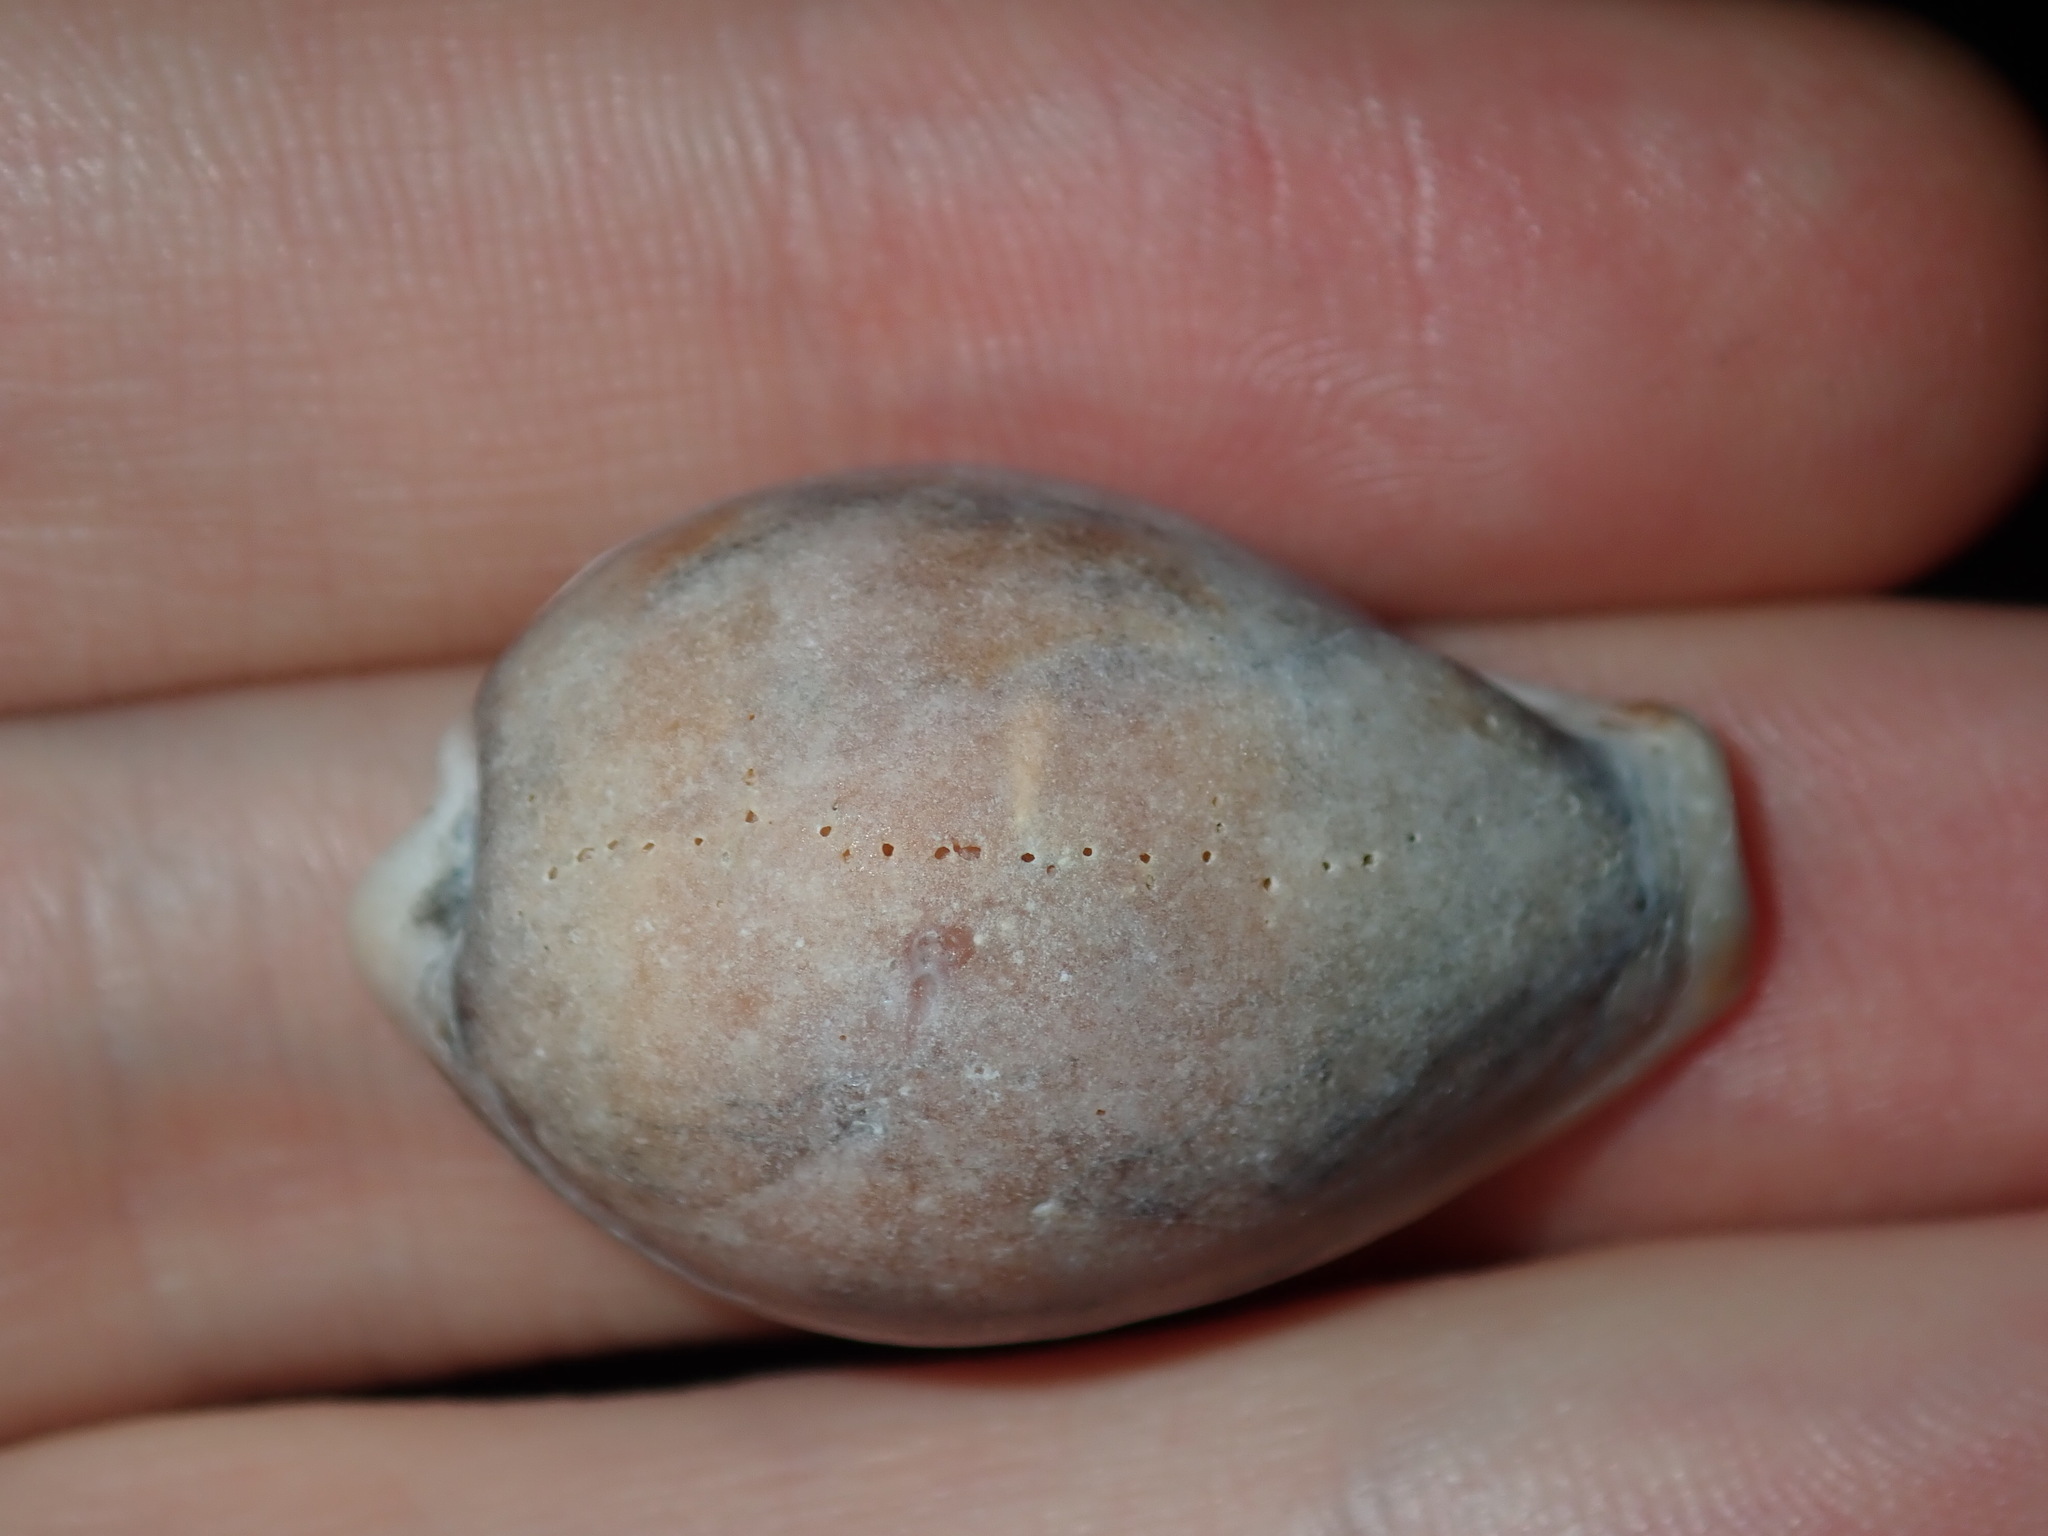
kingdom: Animalia
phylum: Mollusca
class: Gastropoda
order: Littorinimorpha
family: Cypraeidae
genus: Erronea
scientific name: Erronea subviridis
